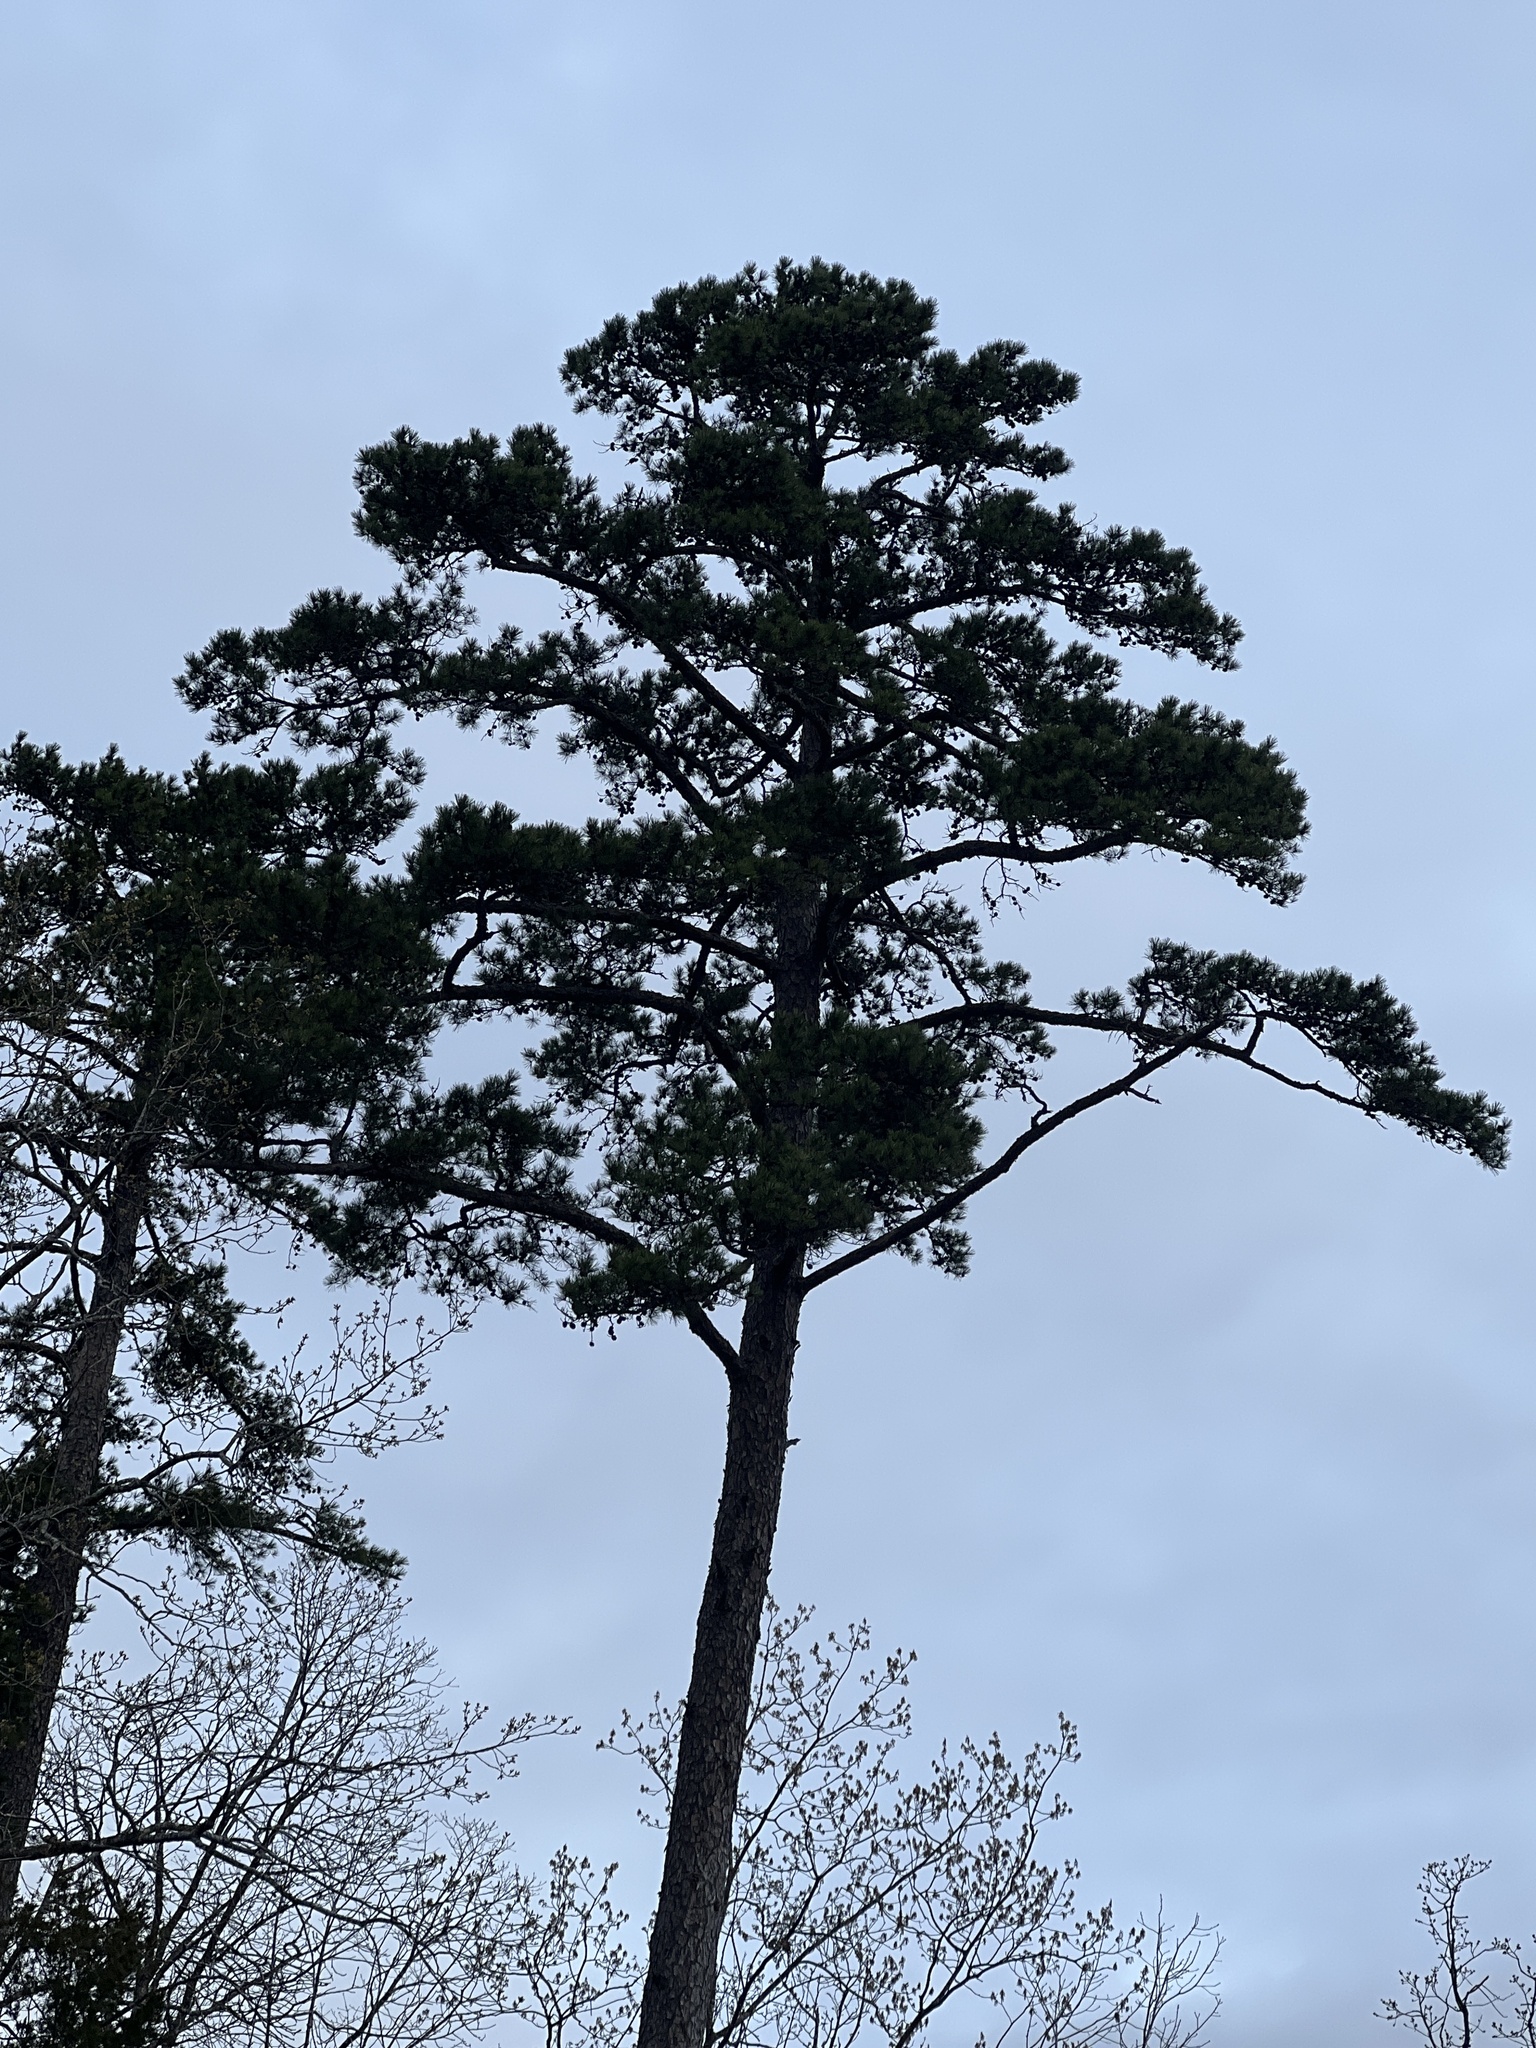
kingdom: Plantae
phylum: Tracheophyta
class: Pinopsida
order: Pinales
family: Pinaceae
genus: Pinus
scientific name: Pinus echinata
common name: Shortleaf pine
